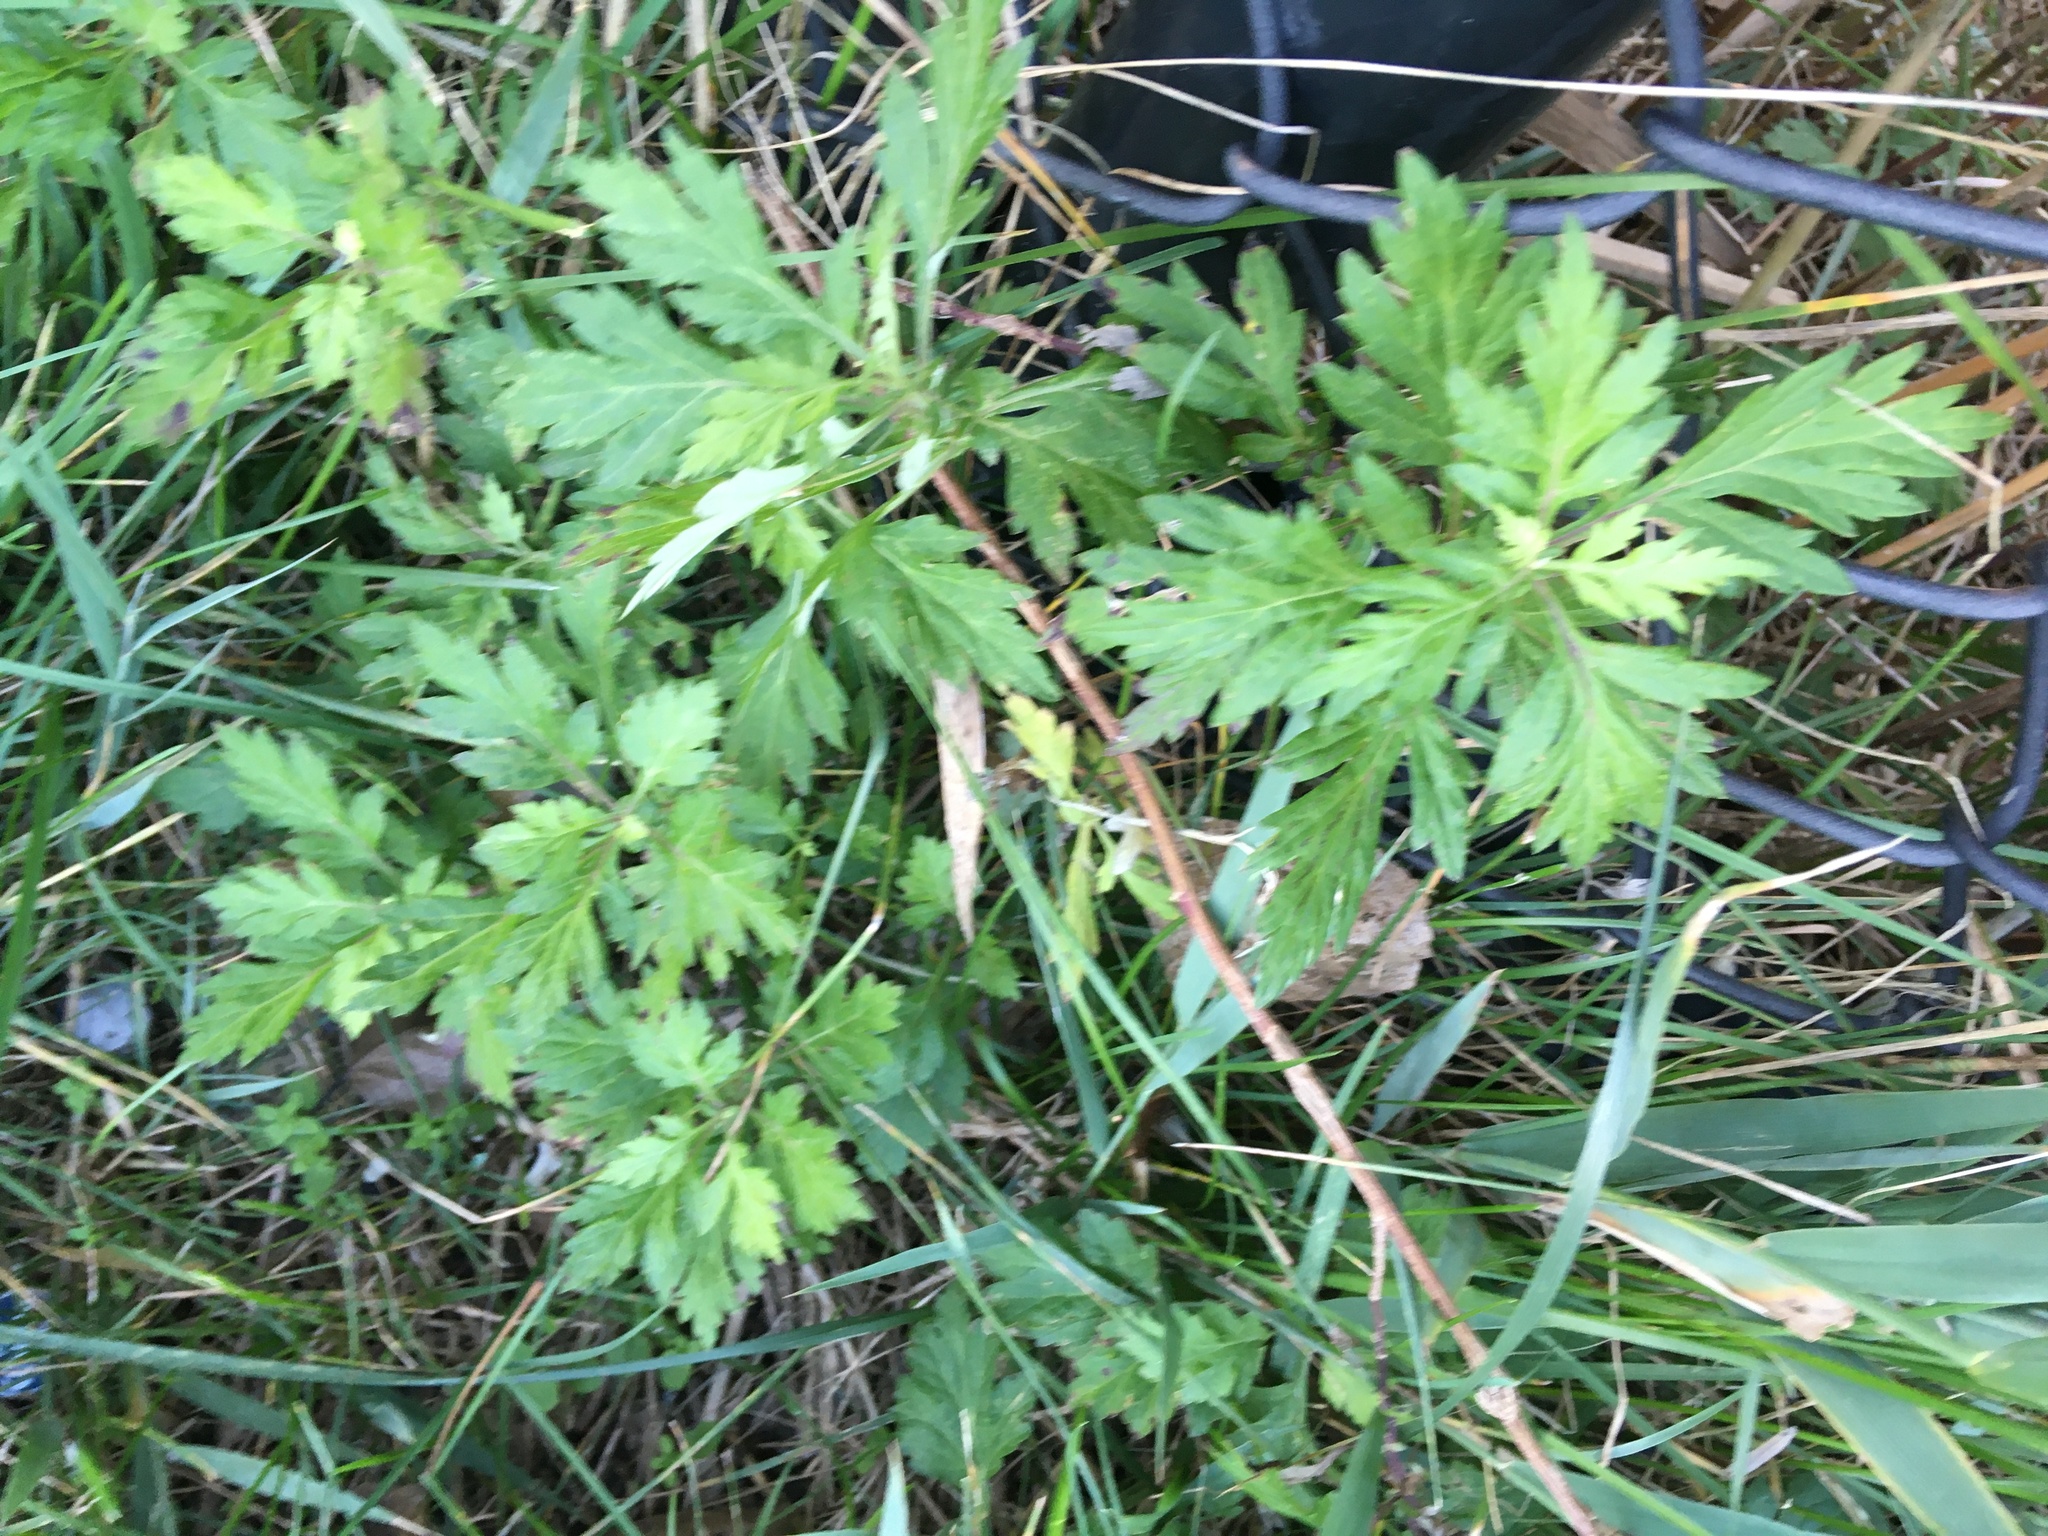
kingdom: Plantae
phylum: Tracheophyta
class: Magnoliopsida
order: Asterales
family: Asteraceae
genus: Artemisia
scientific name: Artemisia vulgaris
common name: Mugwort
